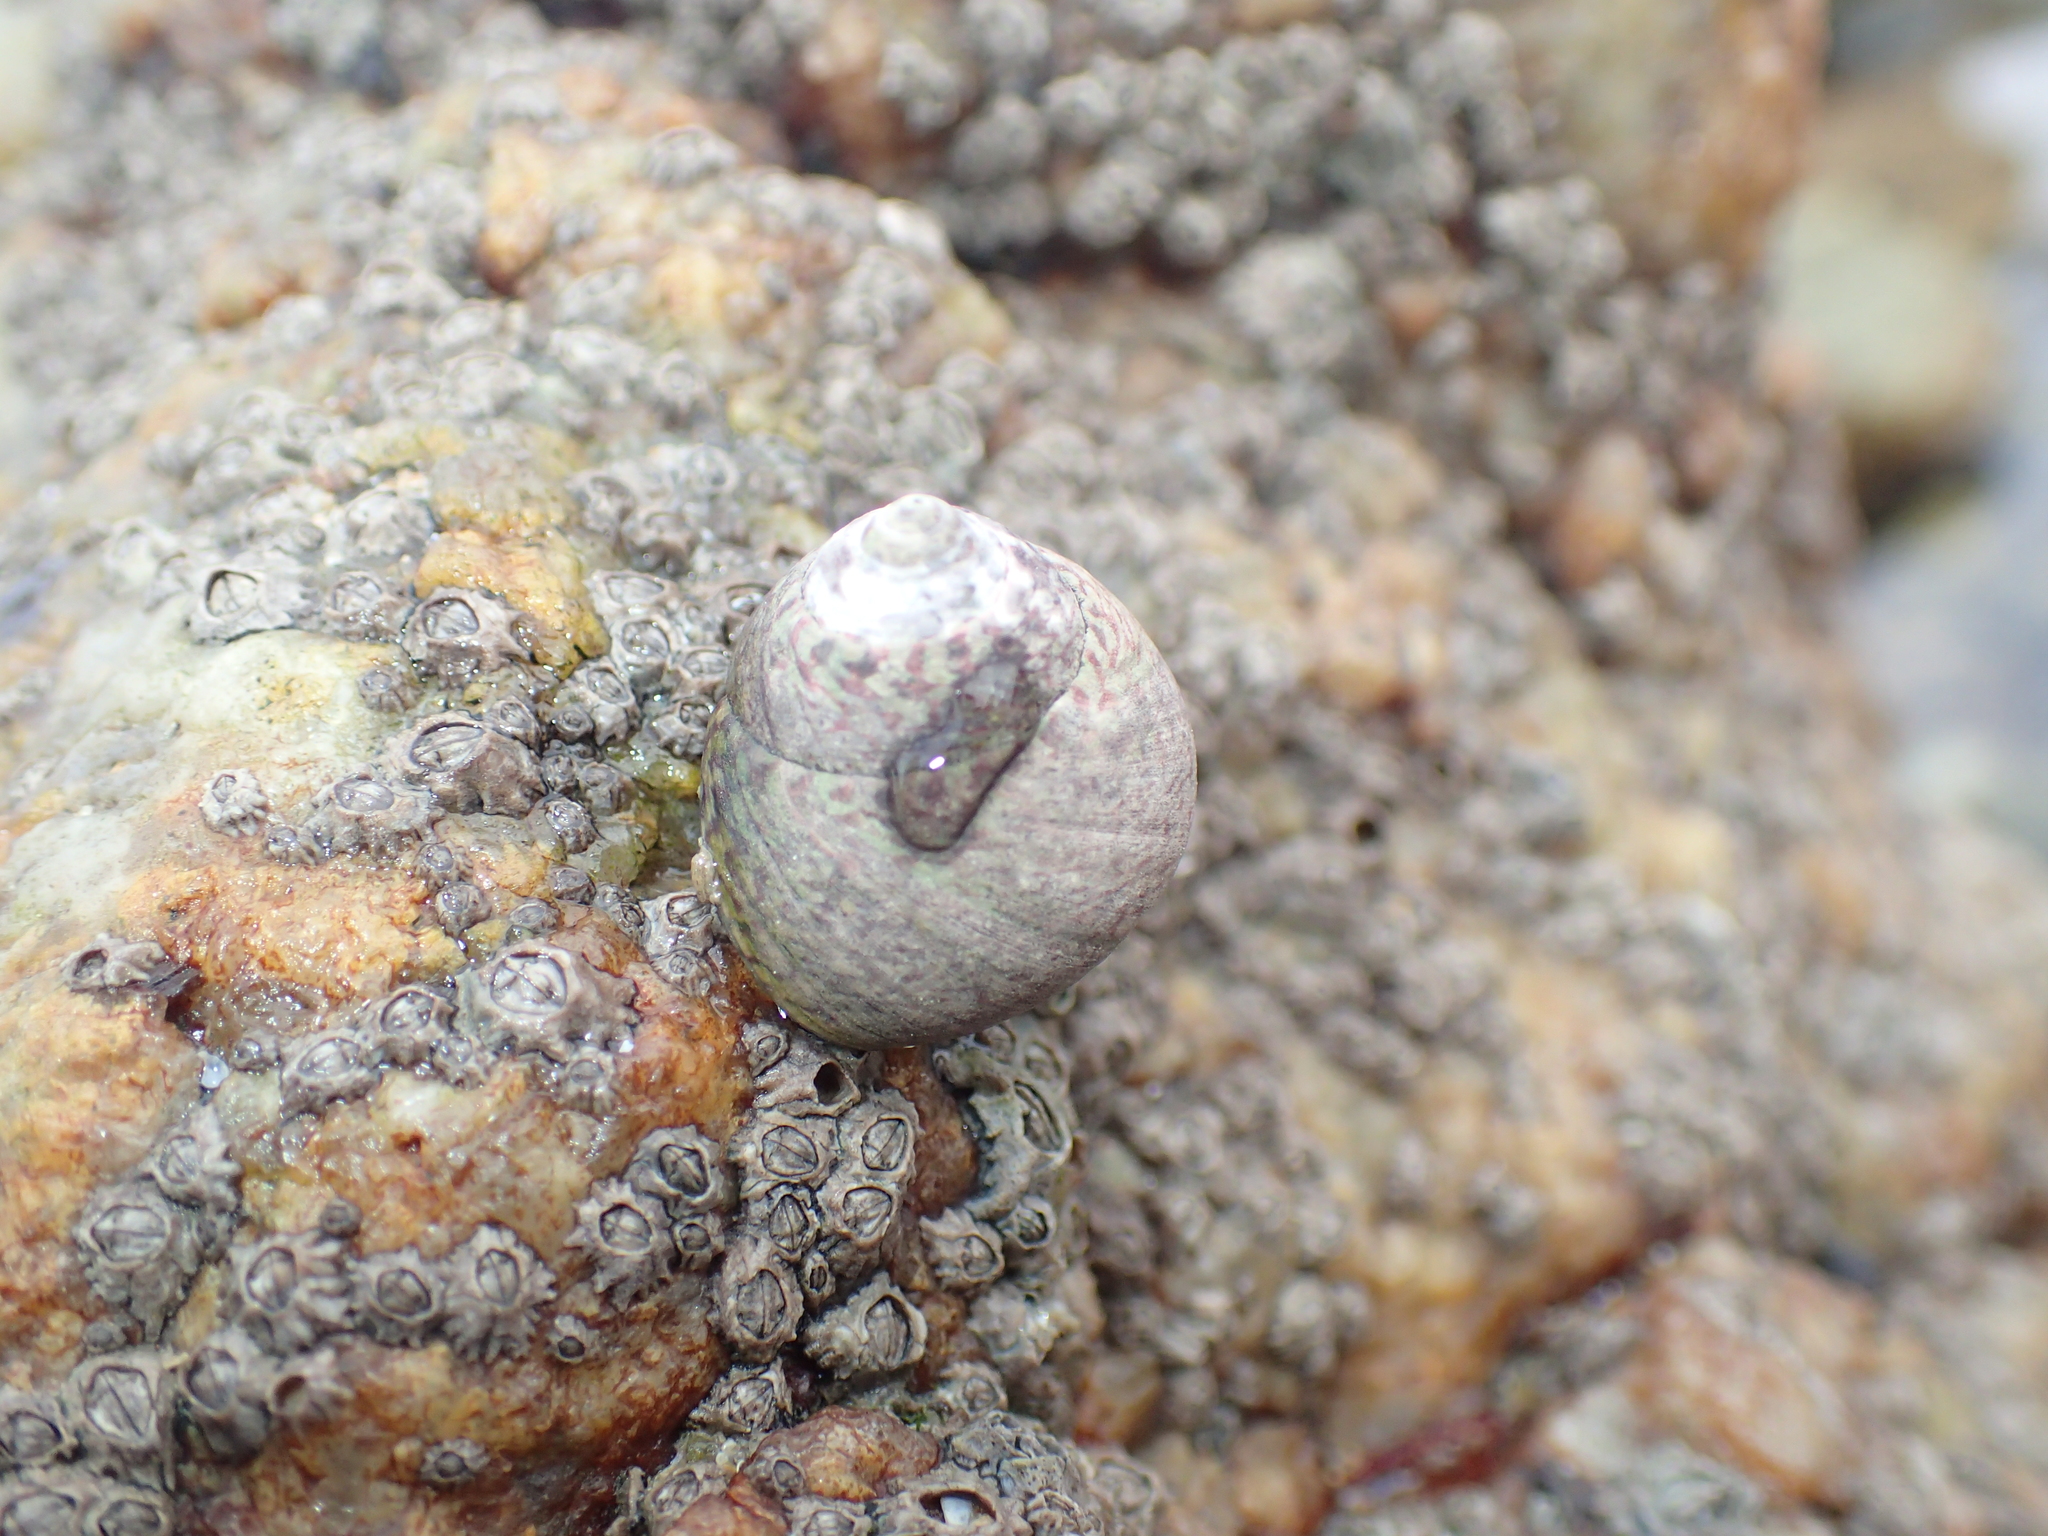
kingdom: Animalia
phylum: Mollusca
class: Gastropoda
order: Trochida
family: Trochidae
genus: Phorcus
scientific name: Phorcus lineatus
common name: Toothed top shell
